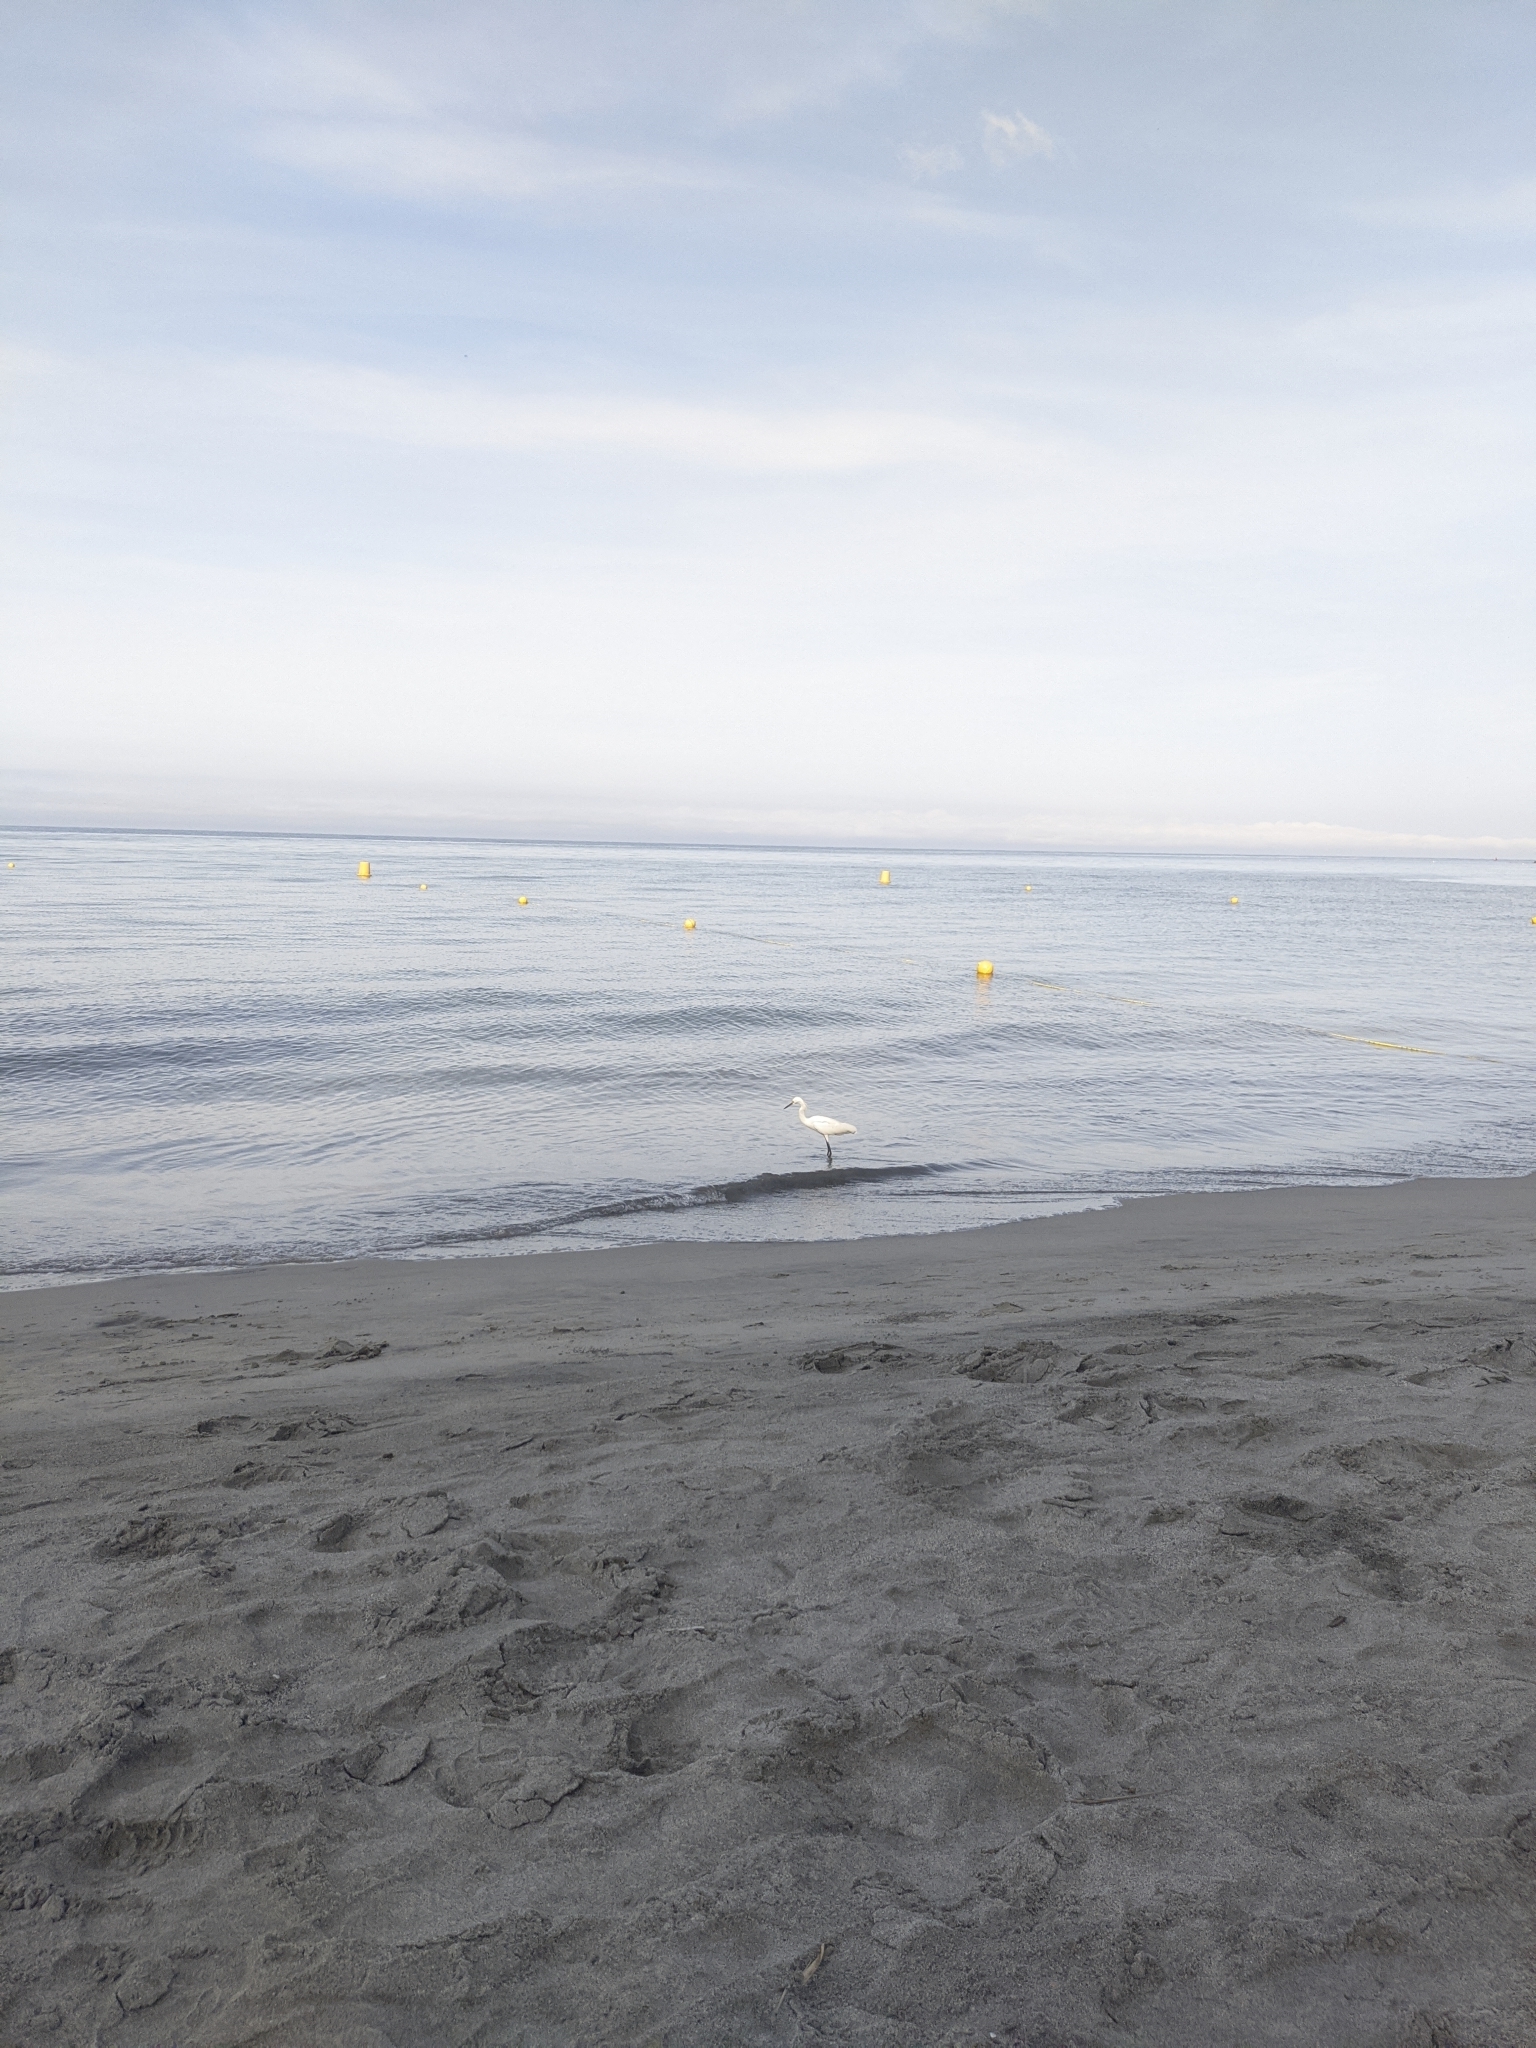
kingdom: Animalia
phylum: Chordata
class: Aves
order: Pelecaniformes
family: Ardeidae
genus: Egretta
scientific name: Egretta thula
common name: Snowy egret
